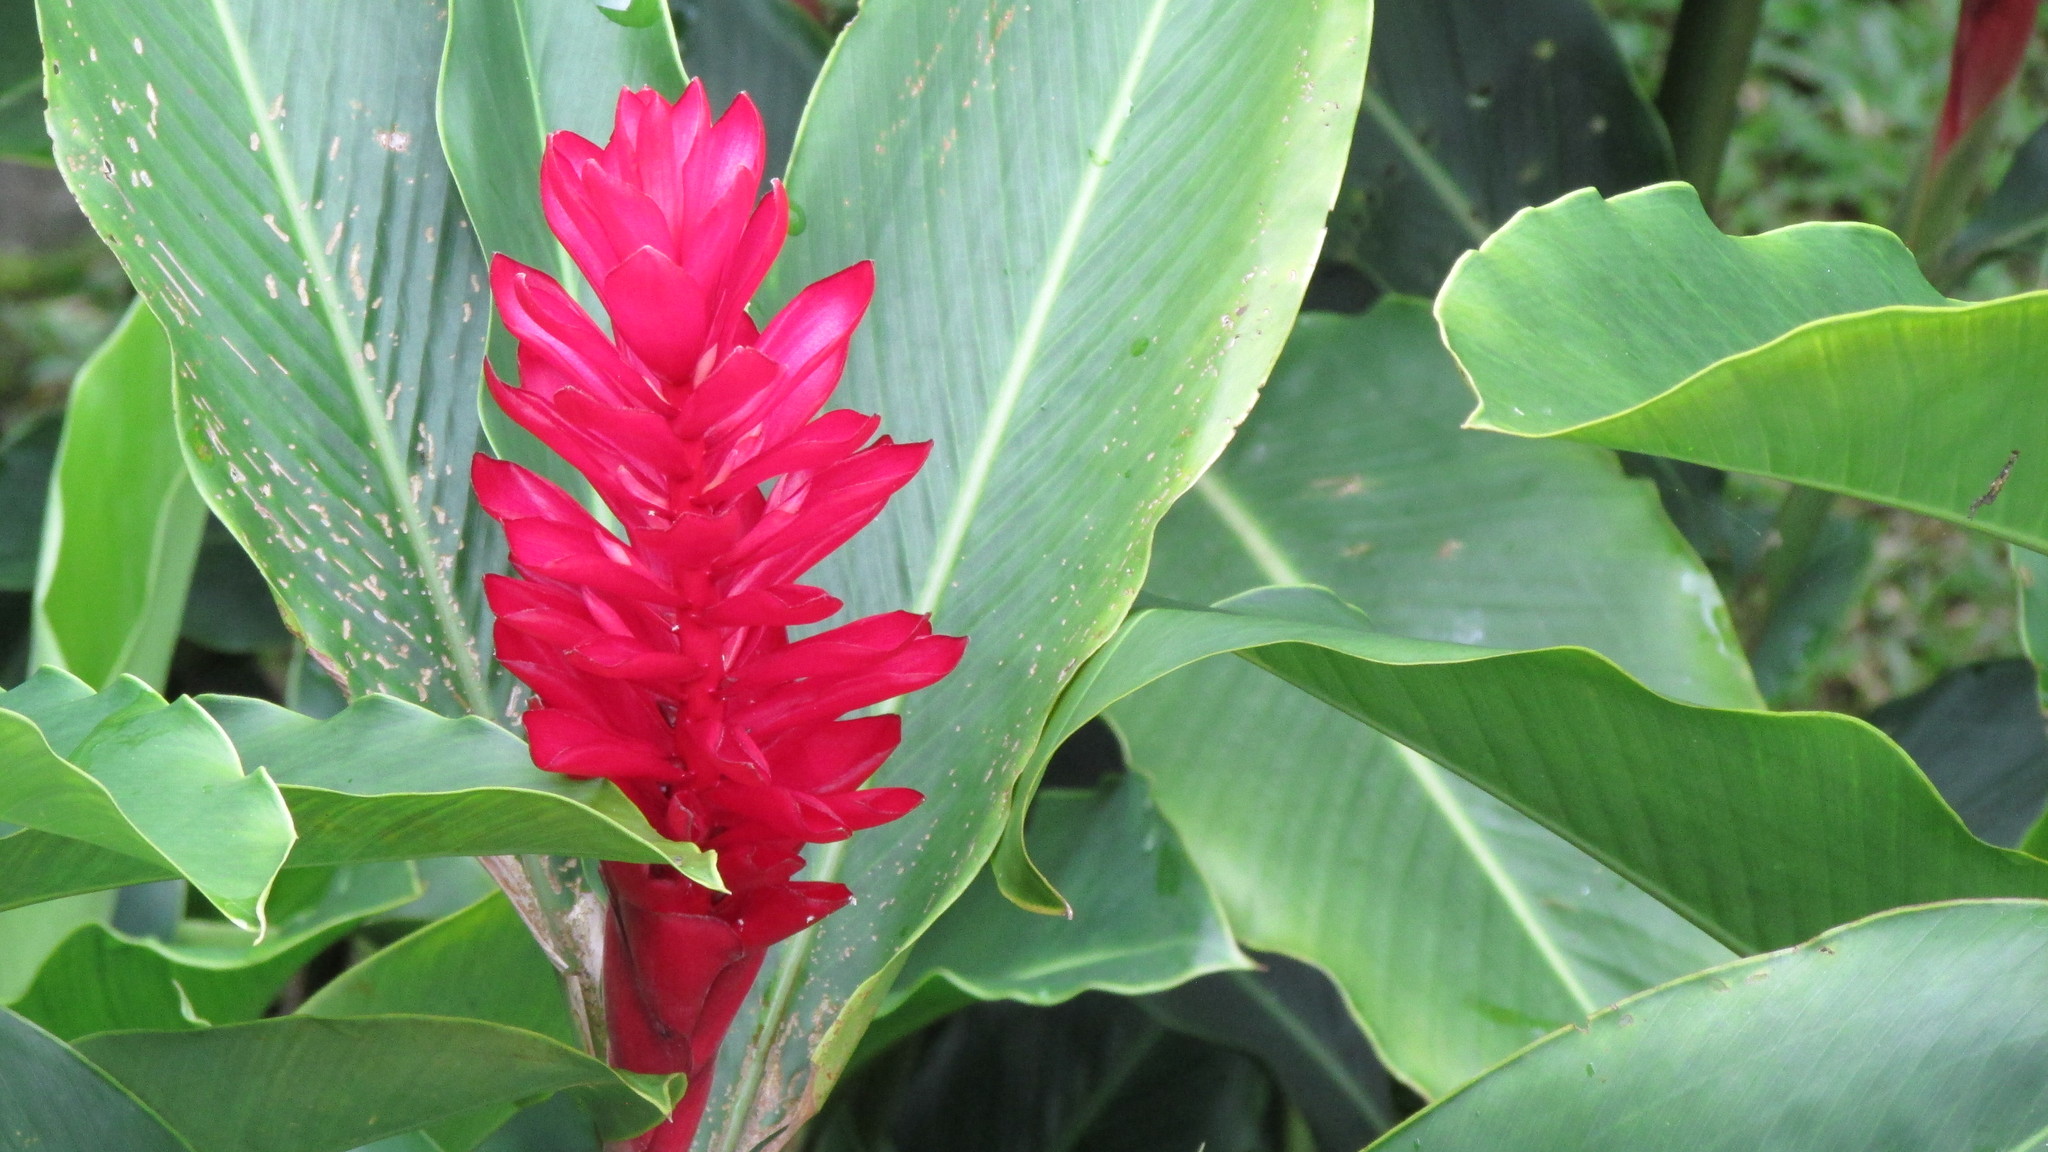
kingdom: Plantae
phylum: Tracheophyta
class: Liliopsida
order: Zingiberales
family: Zingiberaceae
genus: Alpinia
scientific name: Alpinia purpurata
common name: Red ginger
